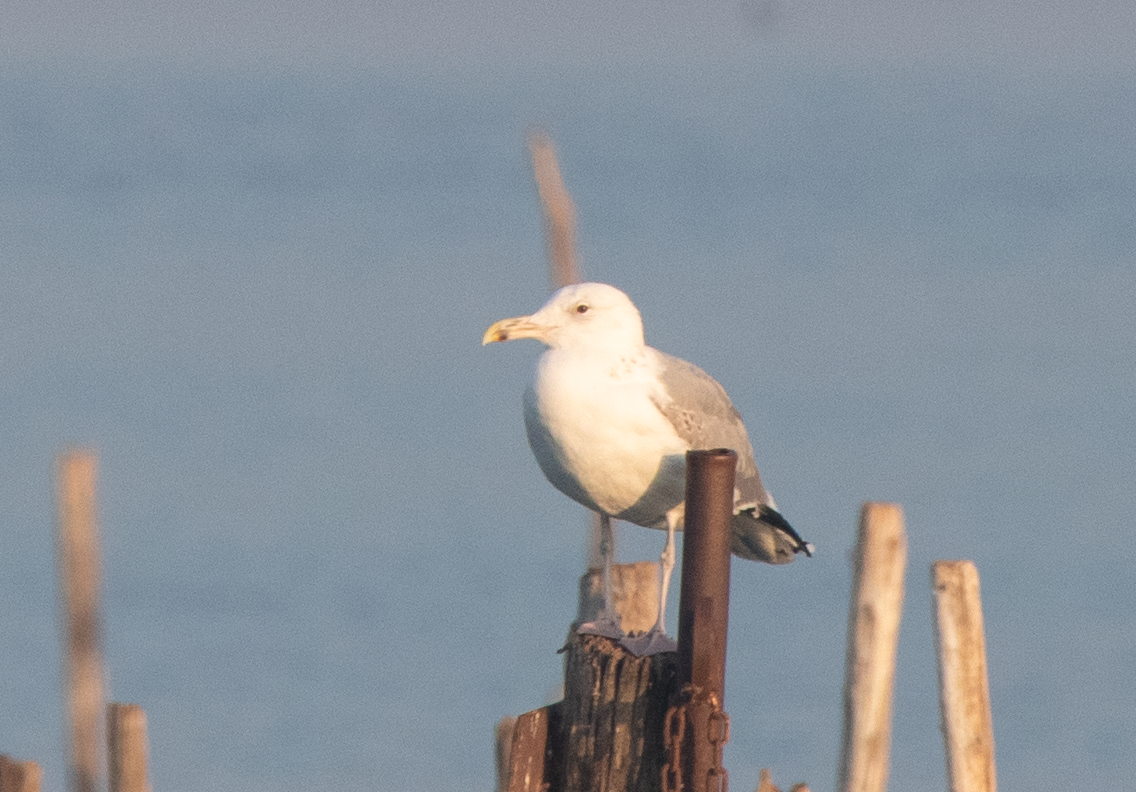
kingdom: Animalia
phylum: Chordata
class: Aves
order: Charadriiformes
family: Laridae
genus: Larus
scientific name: Larus cachinnans
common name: Caspian gull
